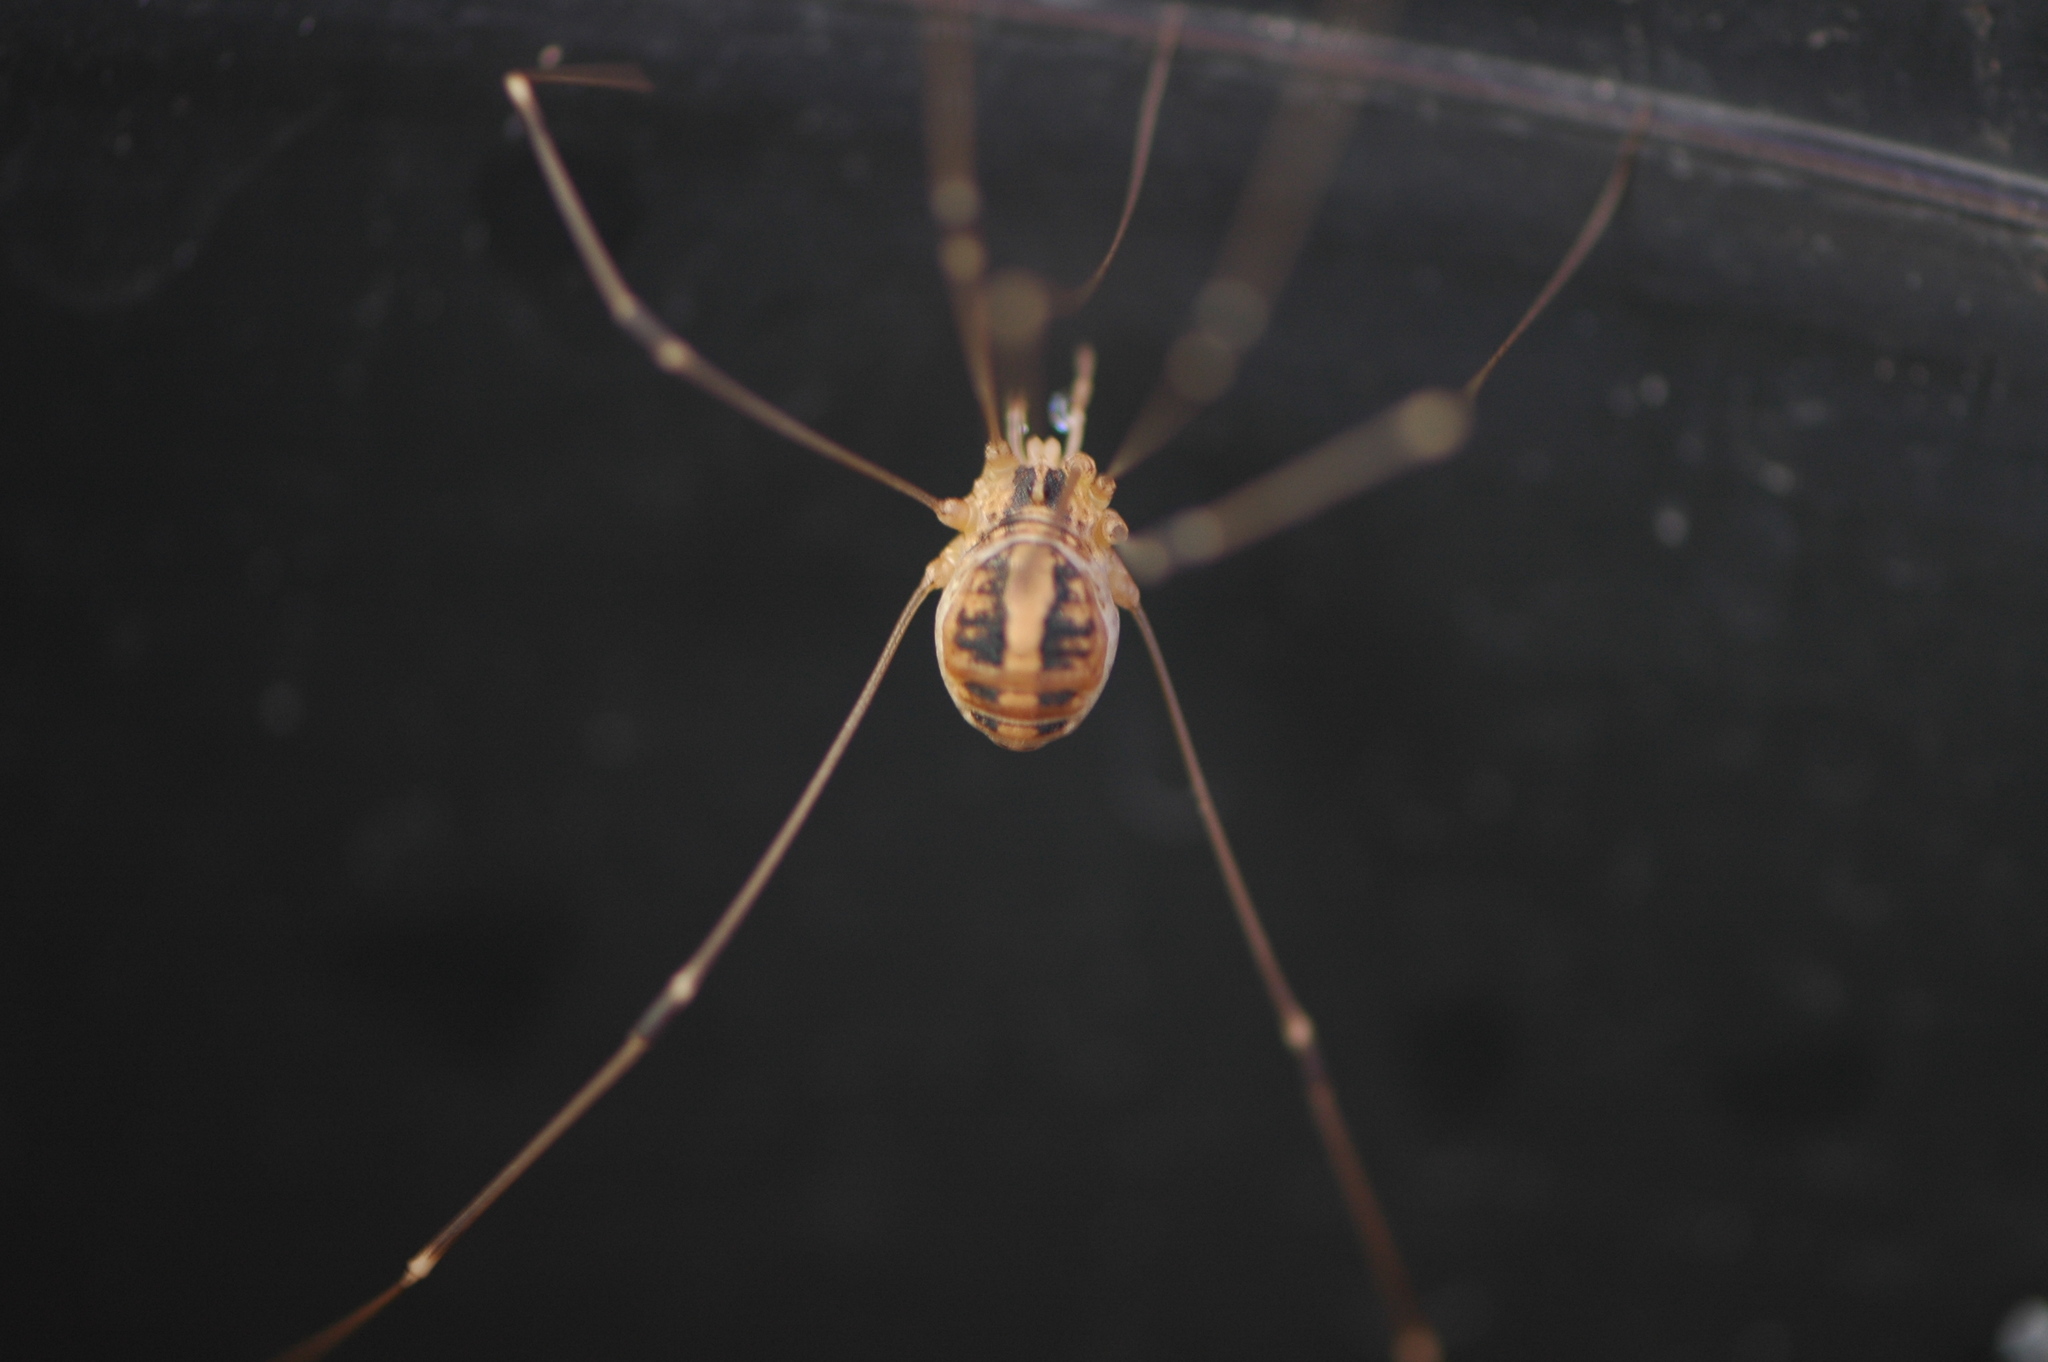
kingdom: Animalia
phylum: Arthropoda
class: Arachnida
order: Opiliones
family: Sclerosomatidae
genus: Cosmobunus
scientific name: Cosmobunus granarius
